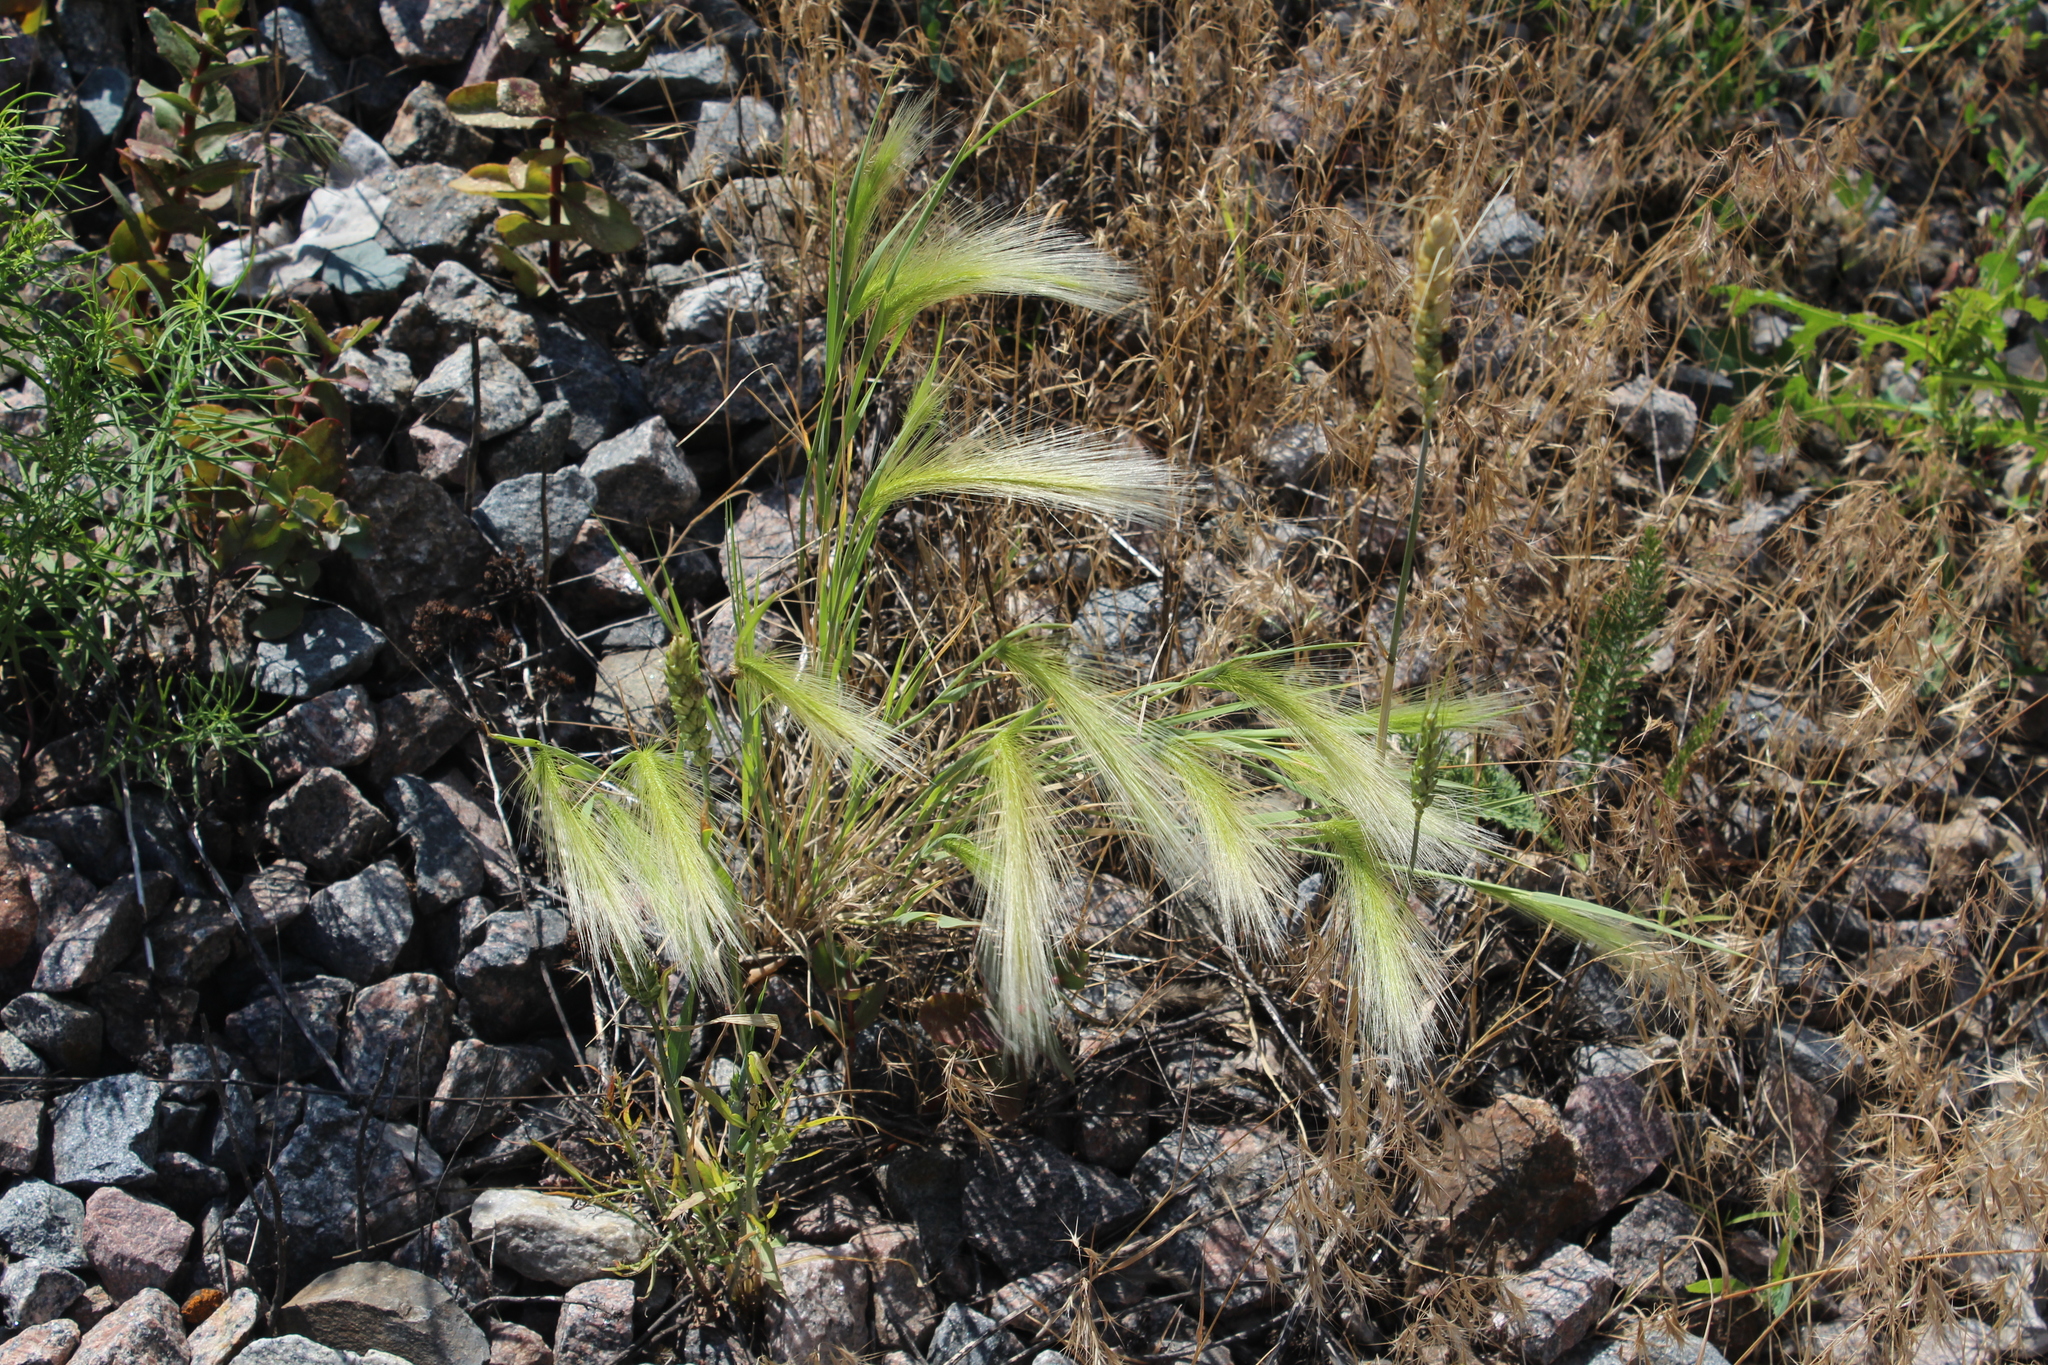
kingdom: Plantae
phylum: Tracheophyta
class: Liliopsida
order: Poales
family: Poaceae
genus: Hordeum
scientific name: Hordeum jubatum
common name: Foxtail barley
